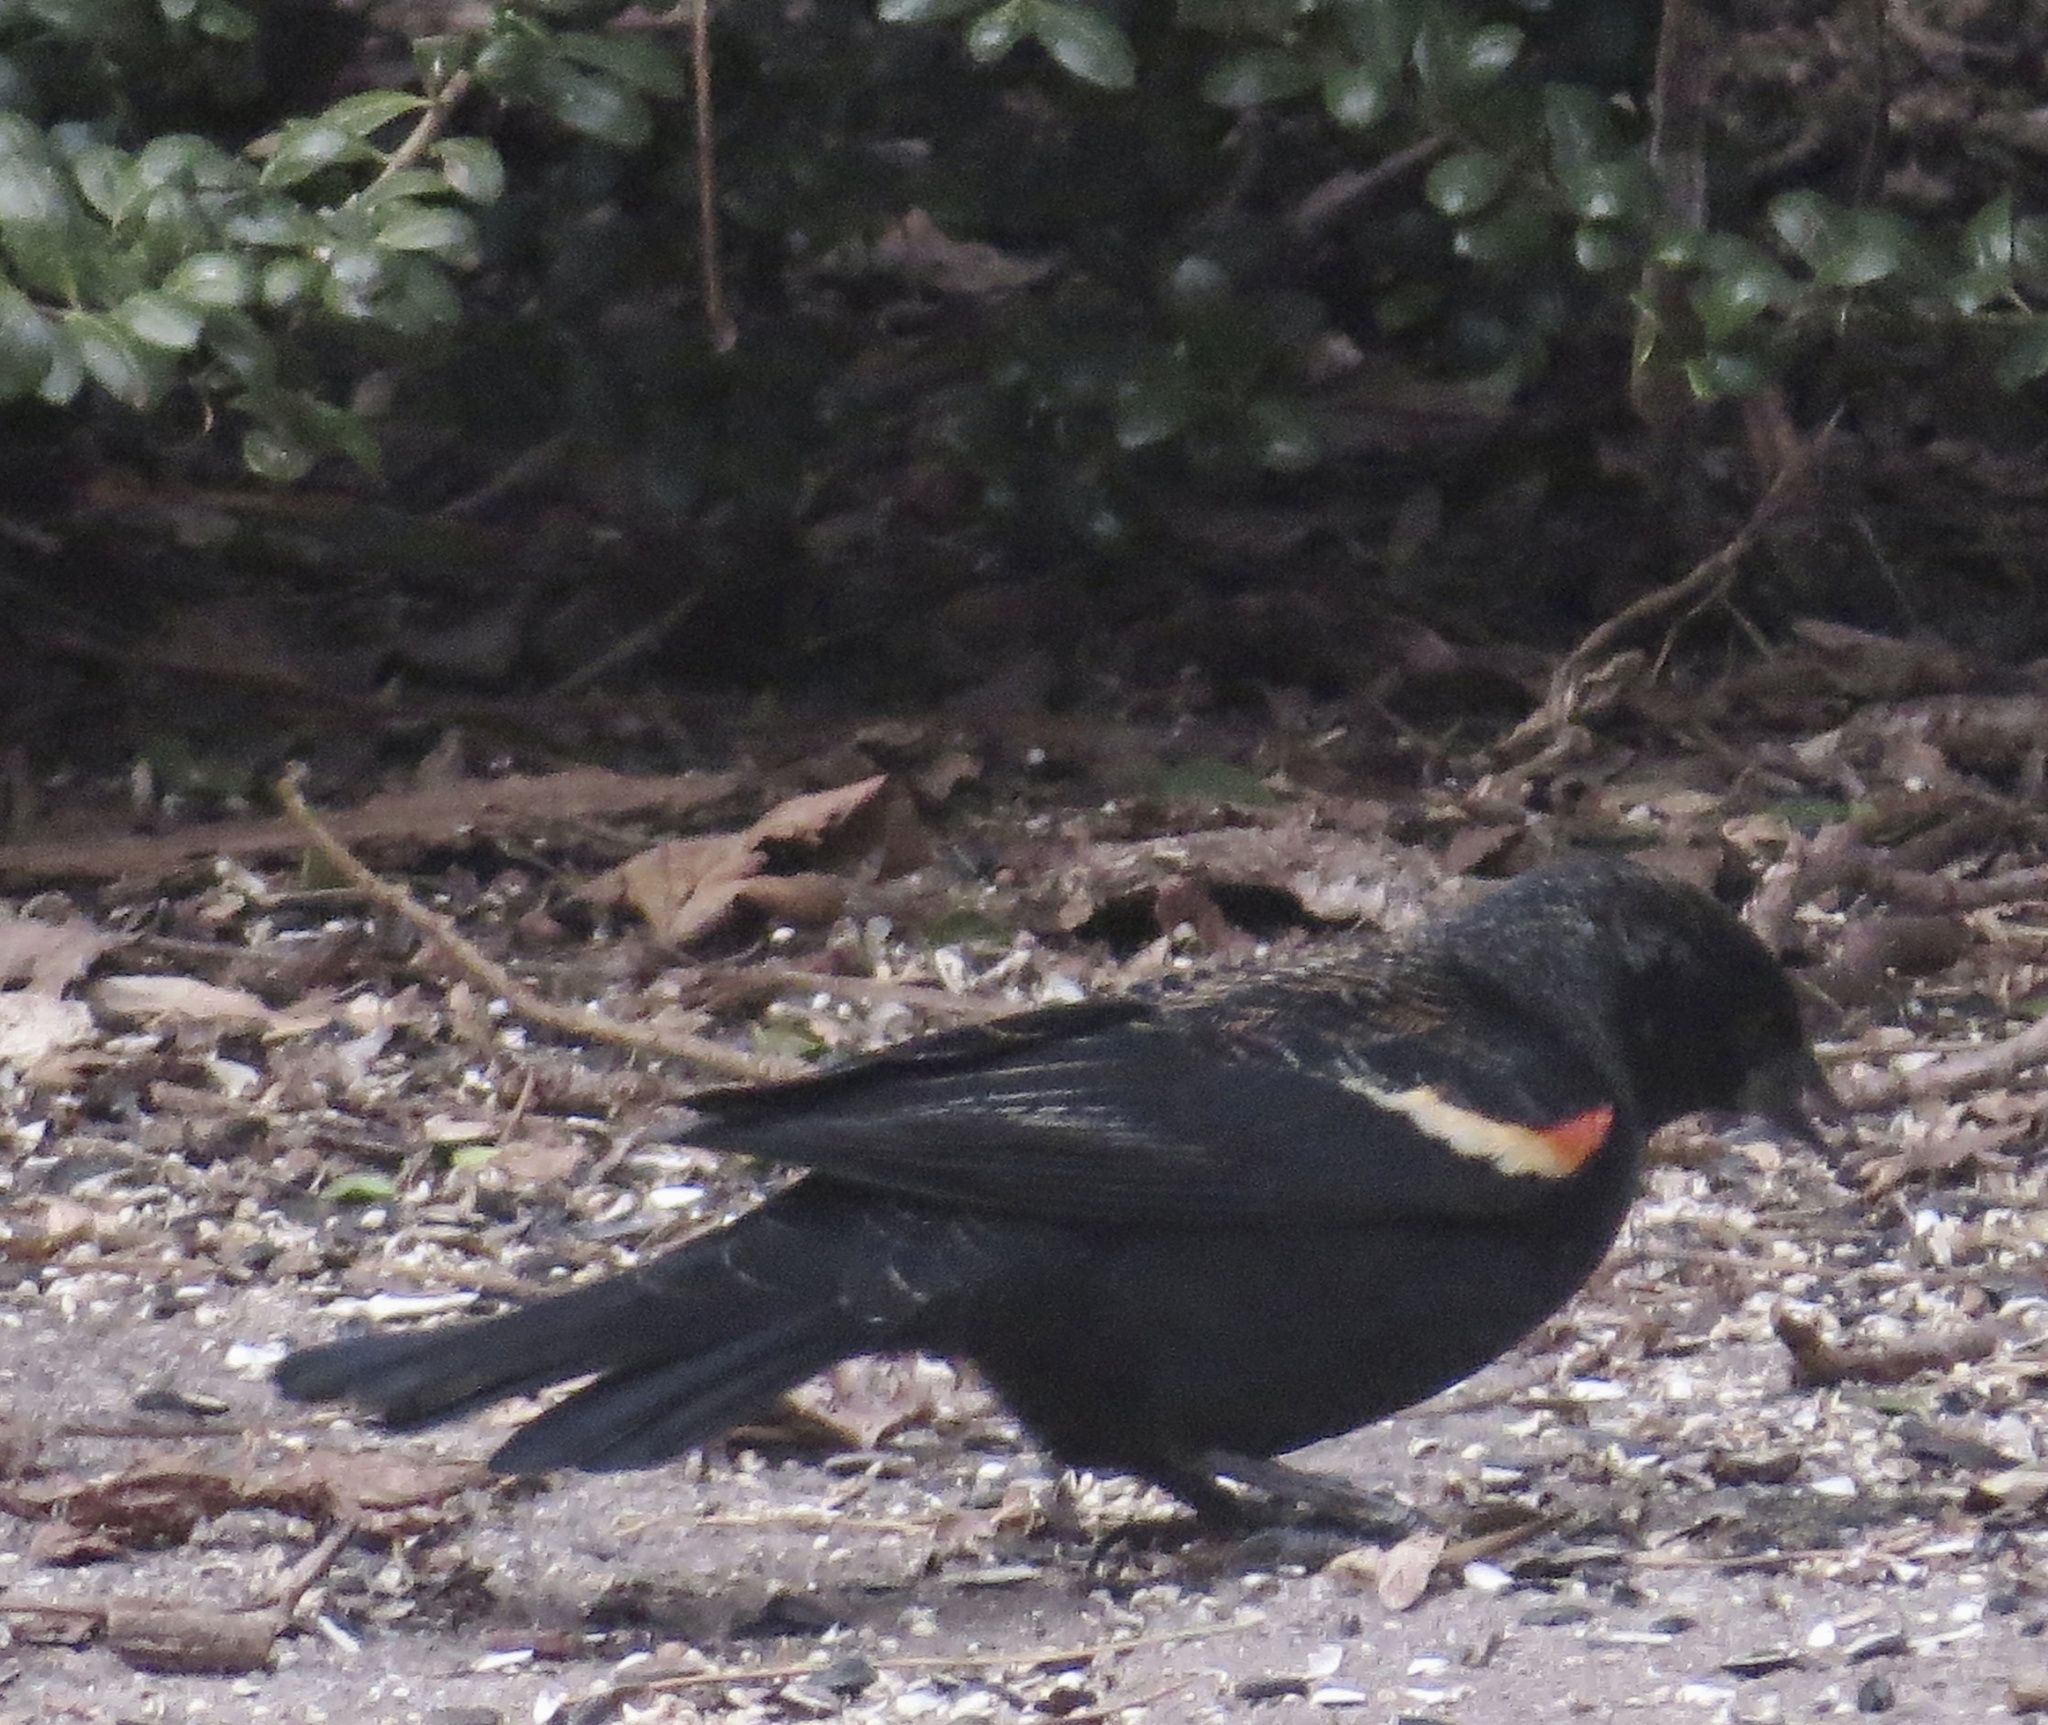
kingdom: Animalia
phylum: Chordata
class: Aves
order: Passeriformes
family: Icteridae
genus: Agelaius
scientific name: Agelaius phoeniceus
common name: Red-winged blackbird
